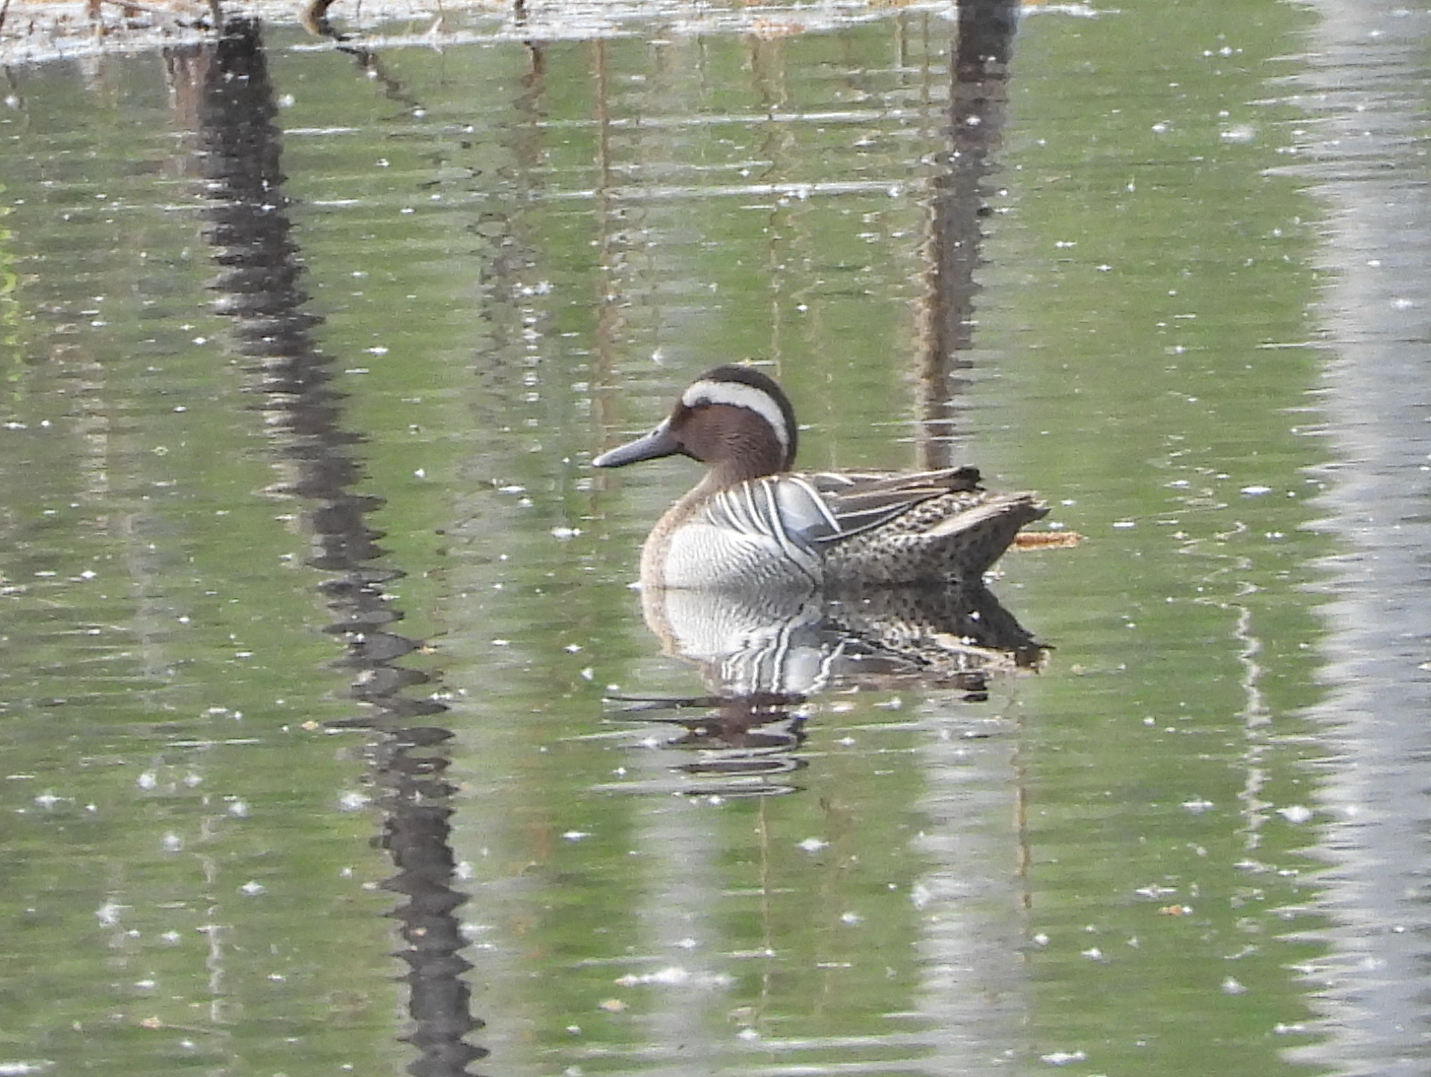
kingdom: Animalia
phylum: Chordata
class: Aves
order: Anseriformes
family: Anatidae
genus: Spatula
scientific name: Spatula querquedula
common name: Garganey
